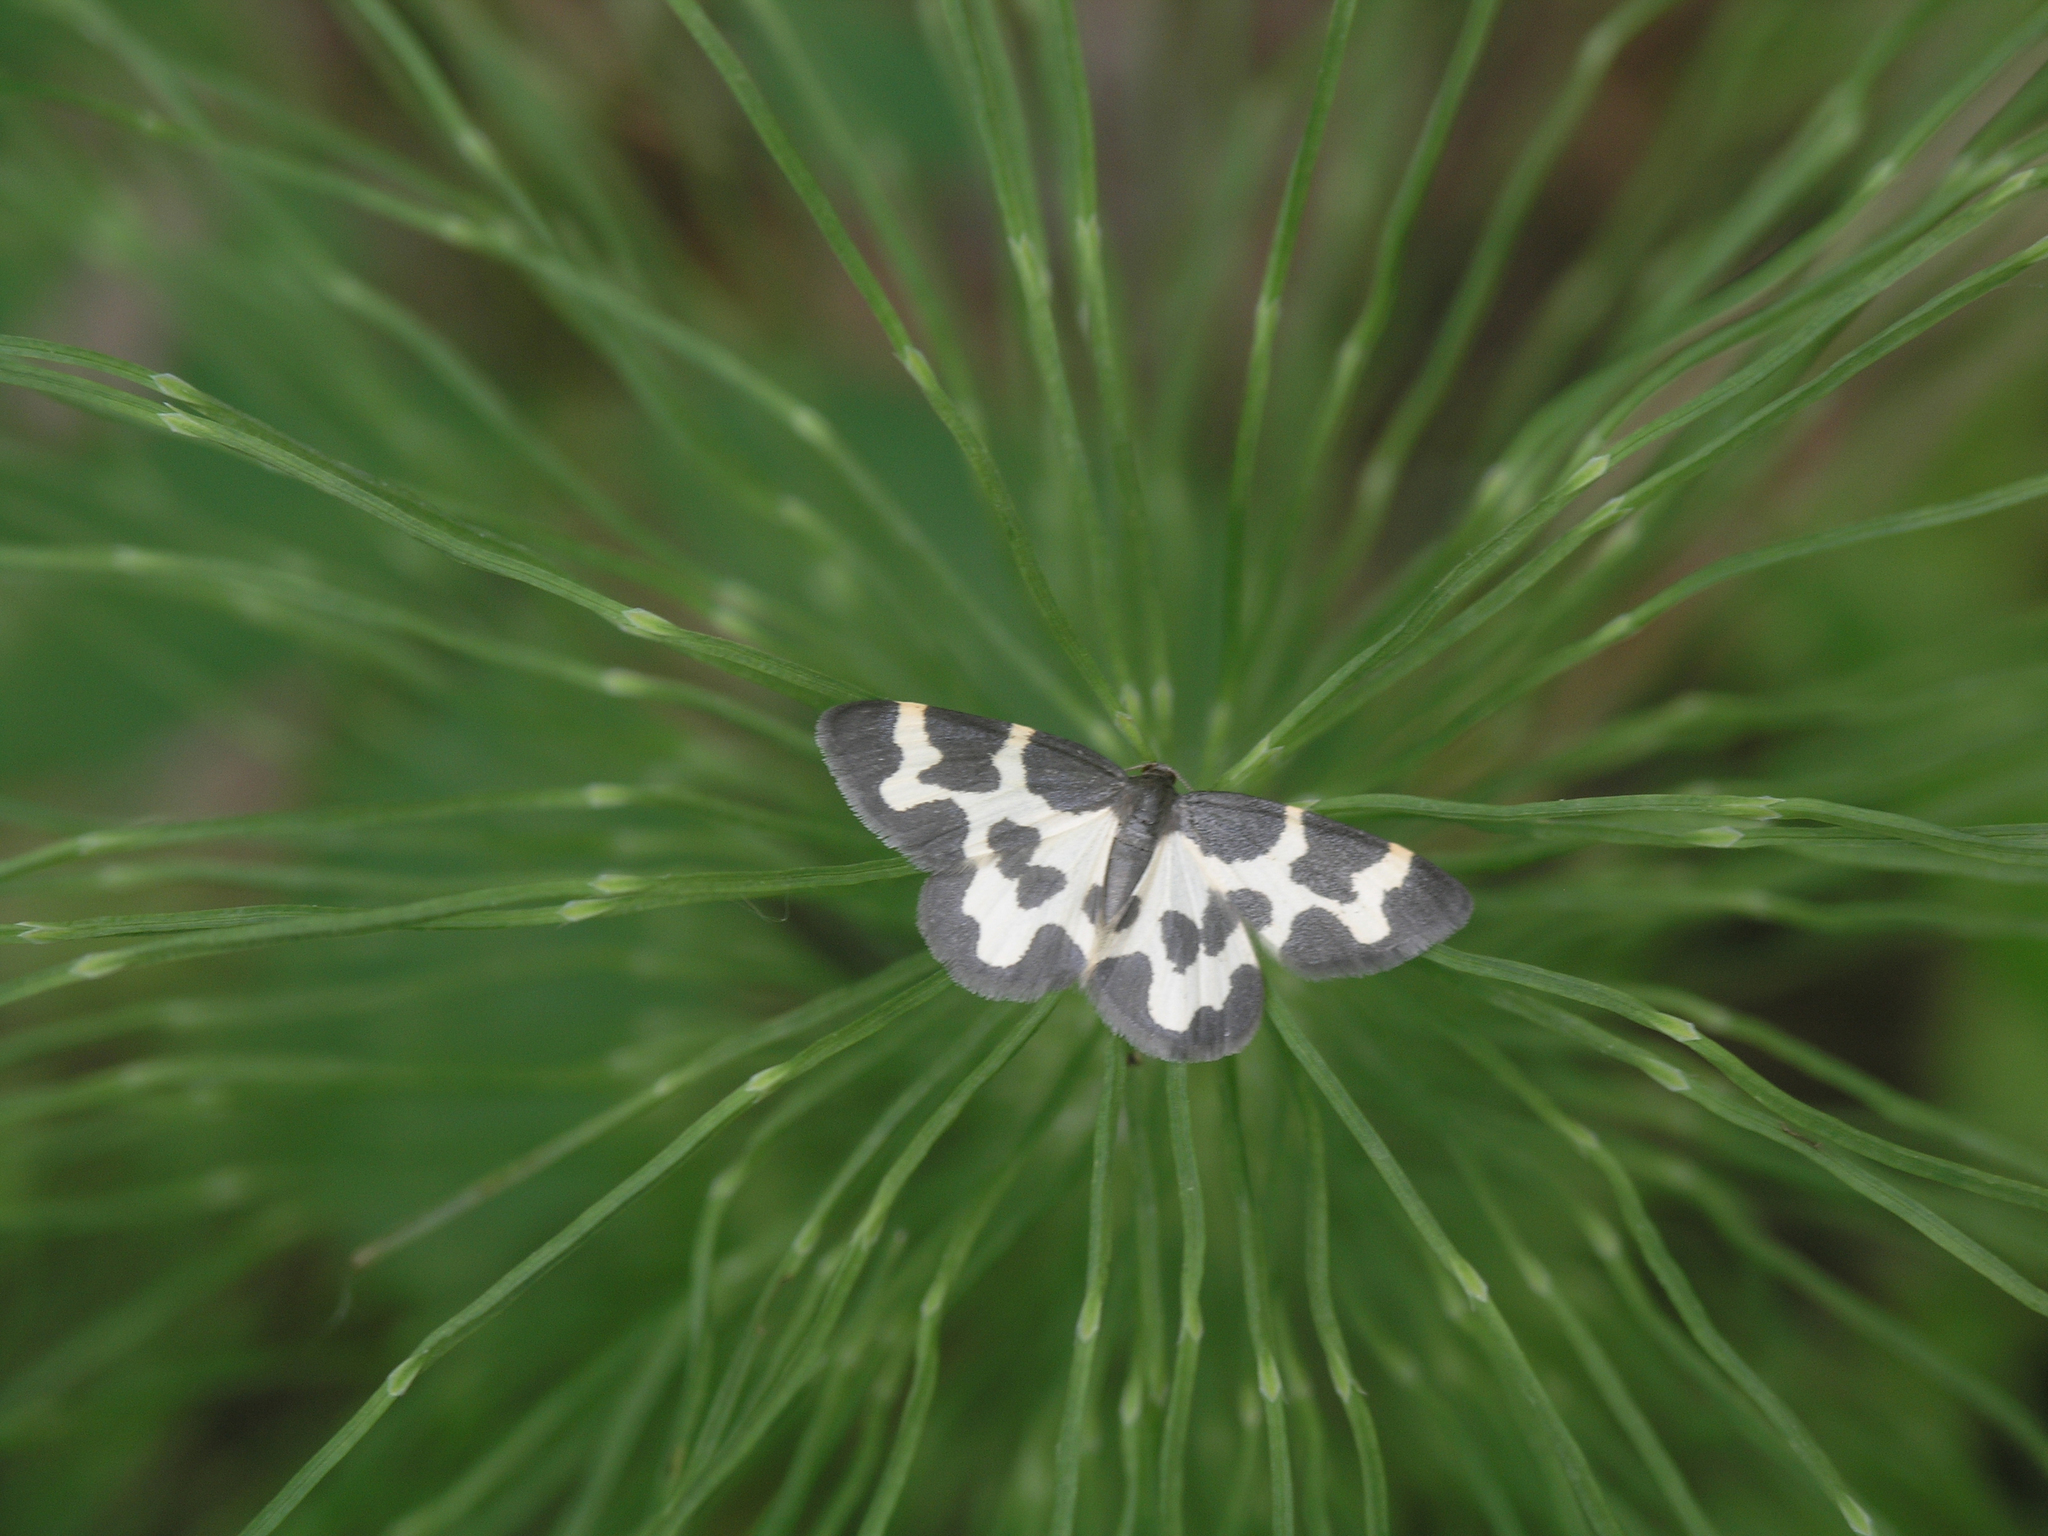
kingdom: Plantae
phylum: Tracheophyta
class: Polypodiopsida
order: Equisetales
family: Equisetaceae
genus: Equisetum
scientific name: Equisetum pratense
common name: Meadow horsetail
